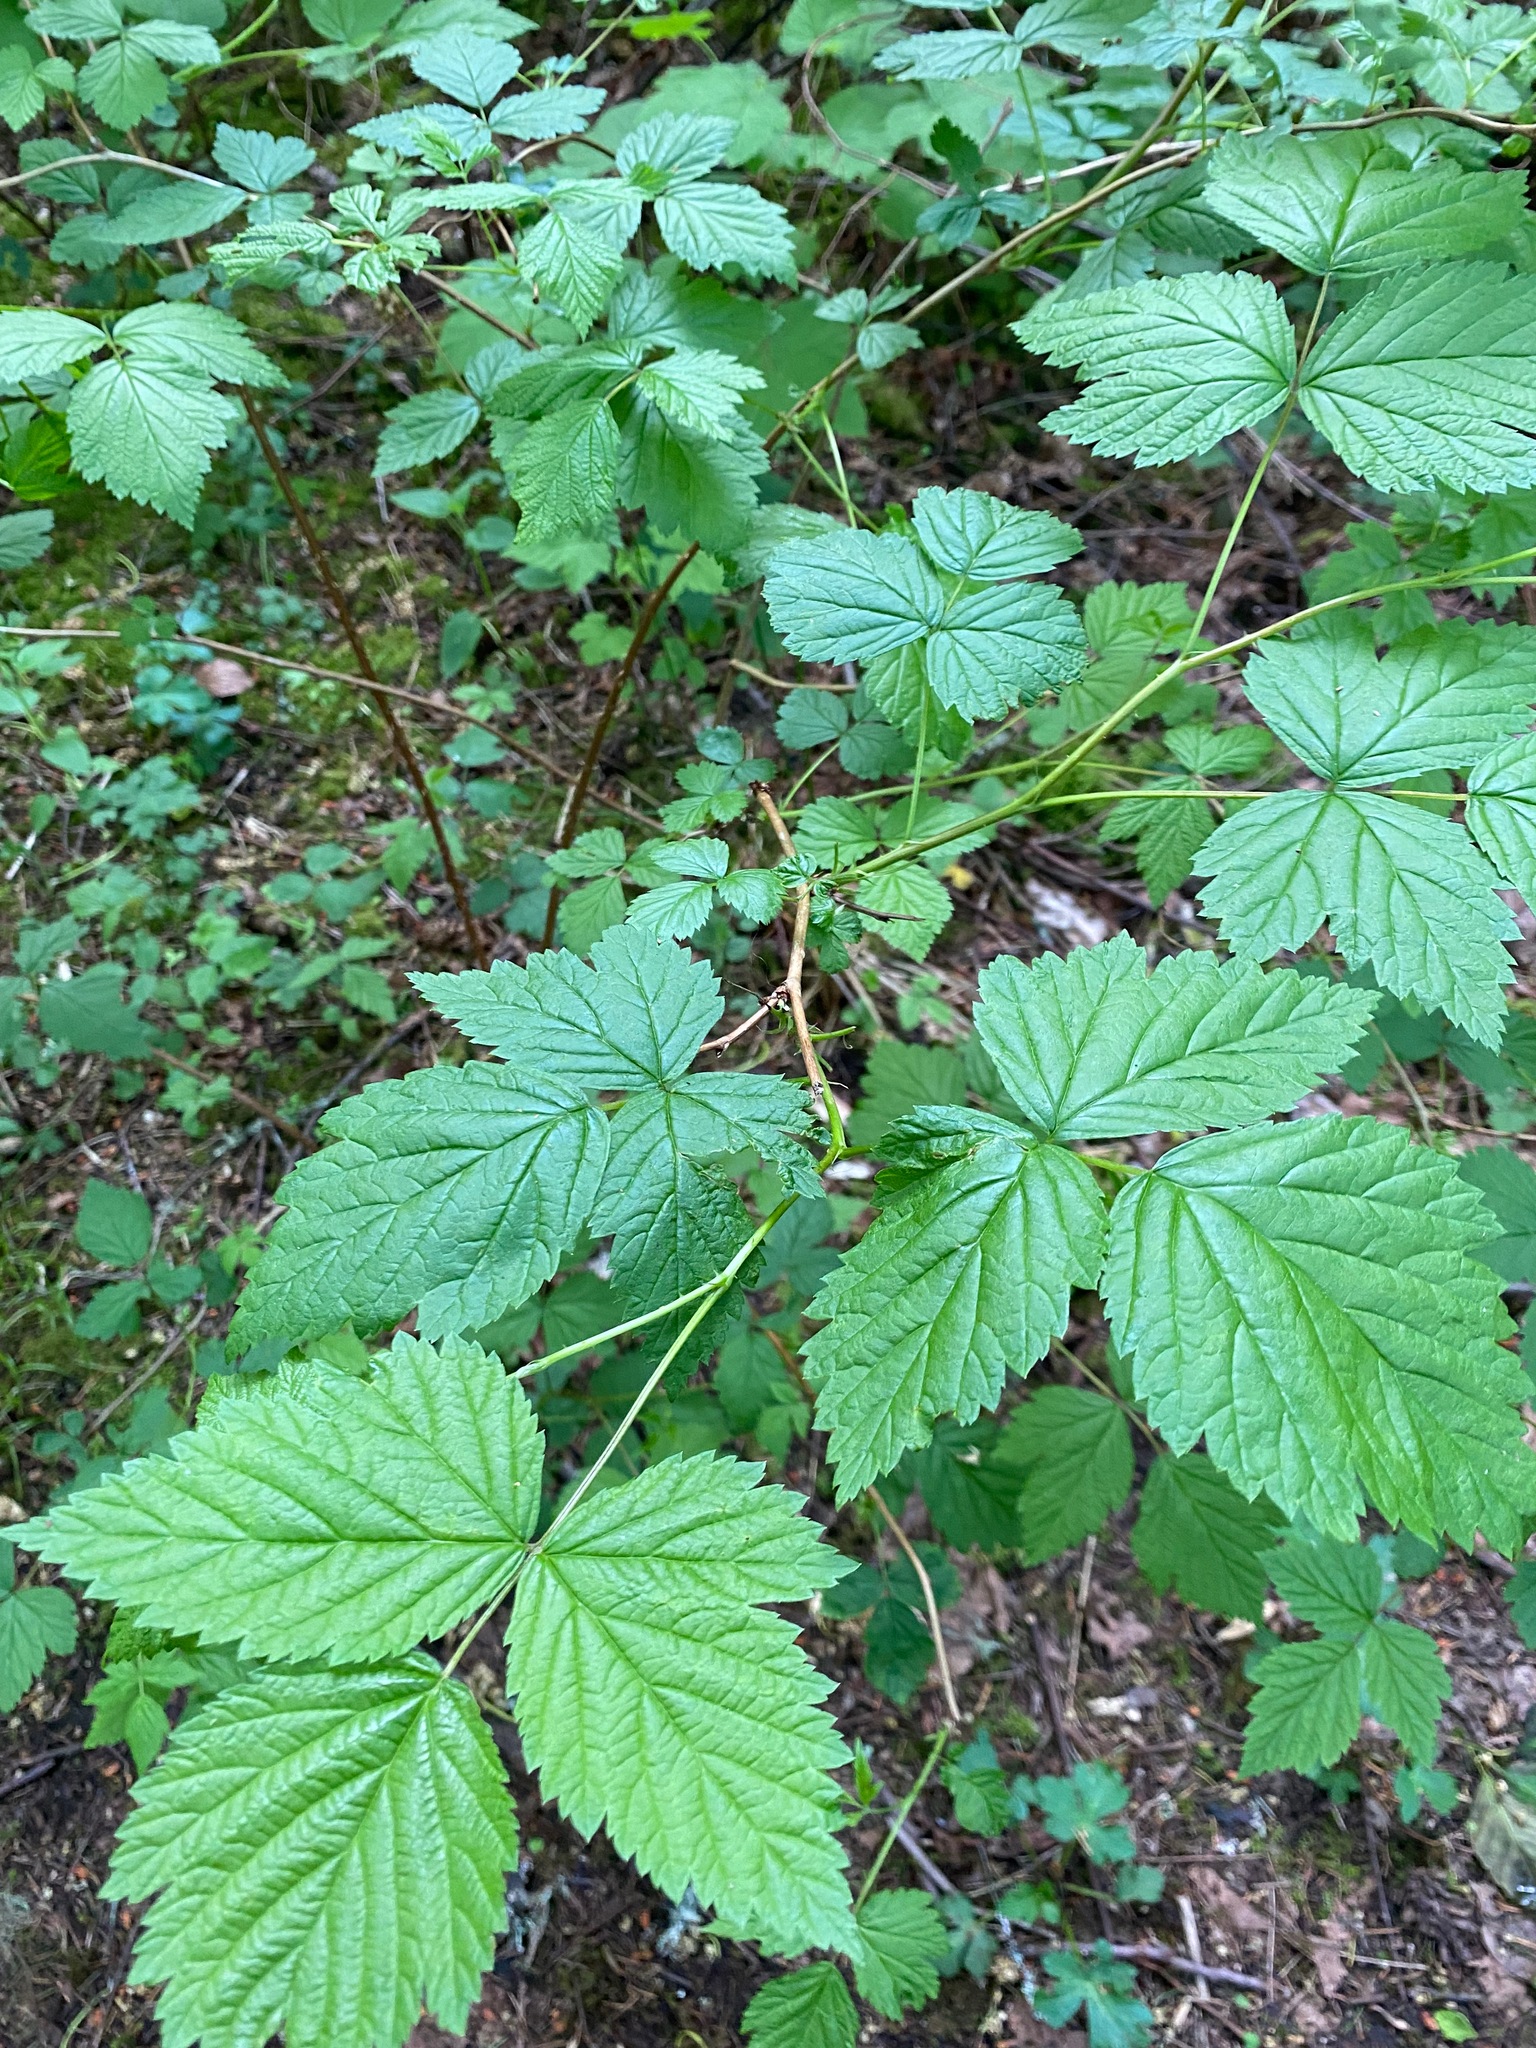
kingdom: Plantae
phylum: Tracheophyta
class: Magnoliopsida
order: Rosales
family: Rosaceae
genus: Rubus
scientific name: Rubus spectabilis
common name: Salmonberry
